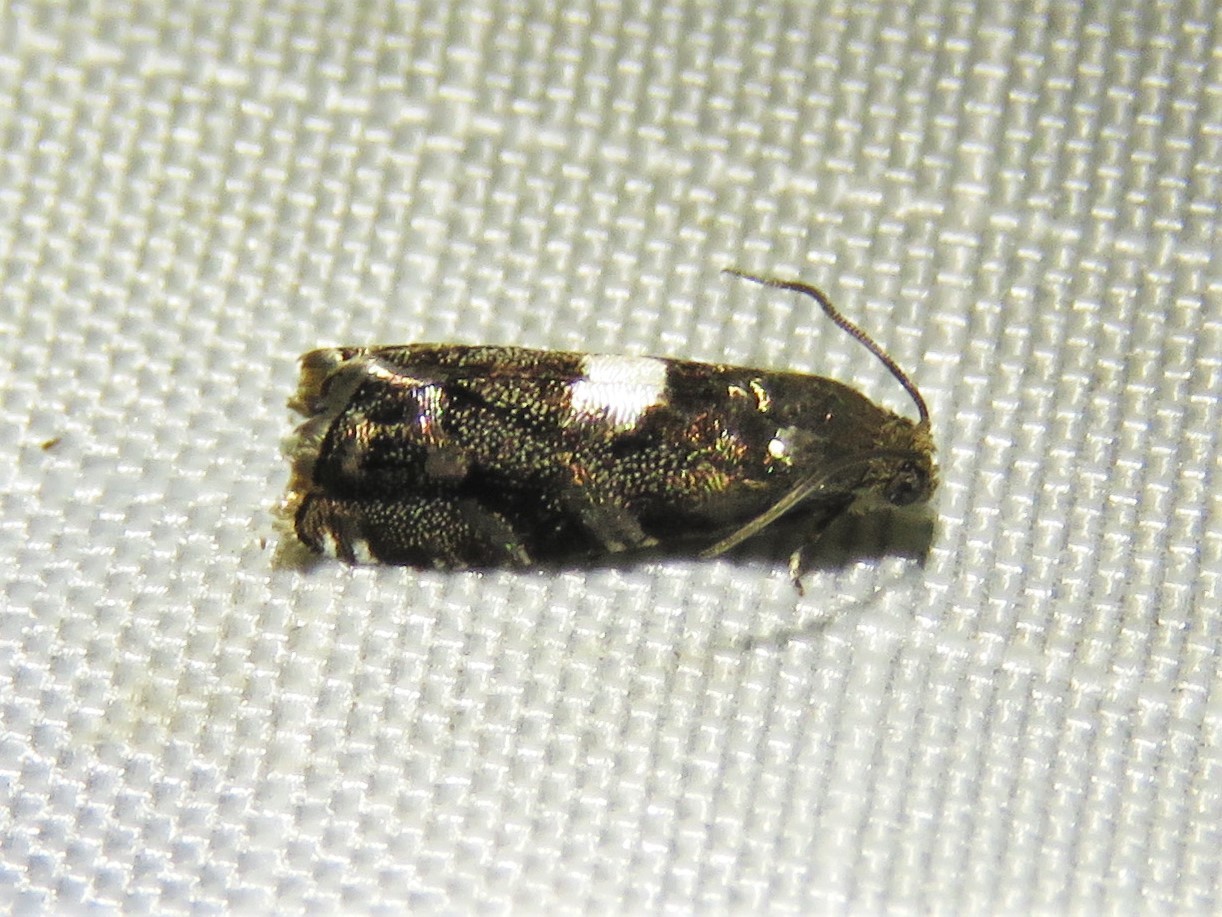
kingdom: Animalia
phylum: Arthropoda
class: Insecta
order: Lepidoptera
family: Tortricidae
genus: Cydia
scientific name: Cydia albimaculana
